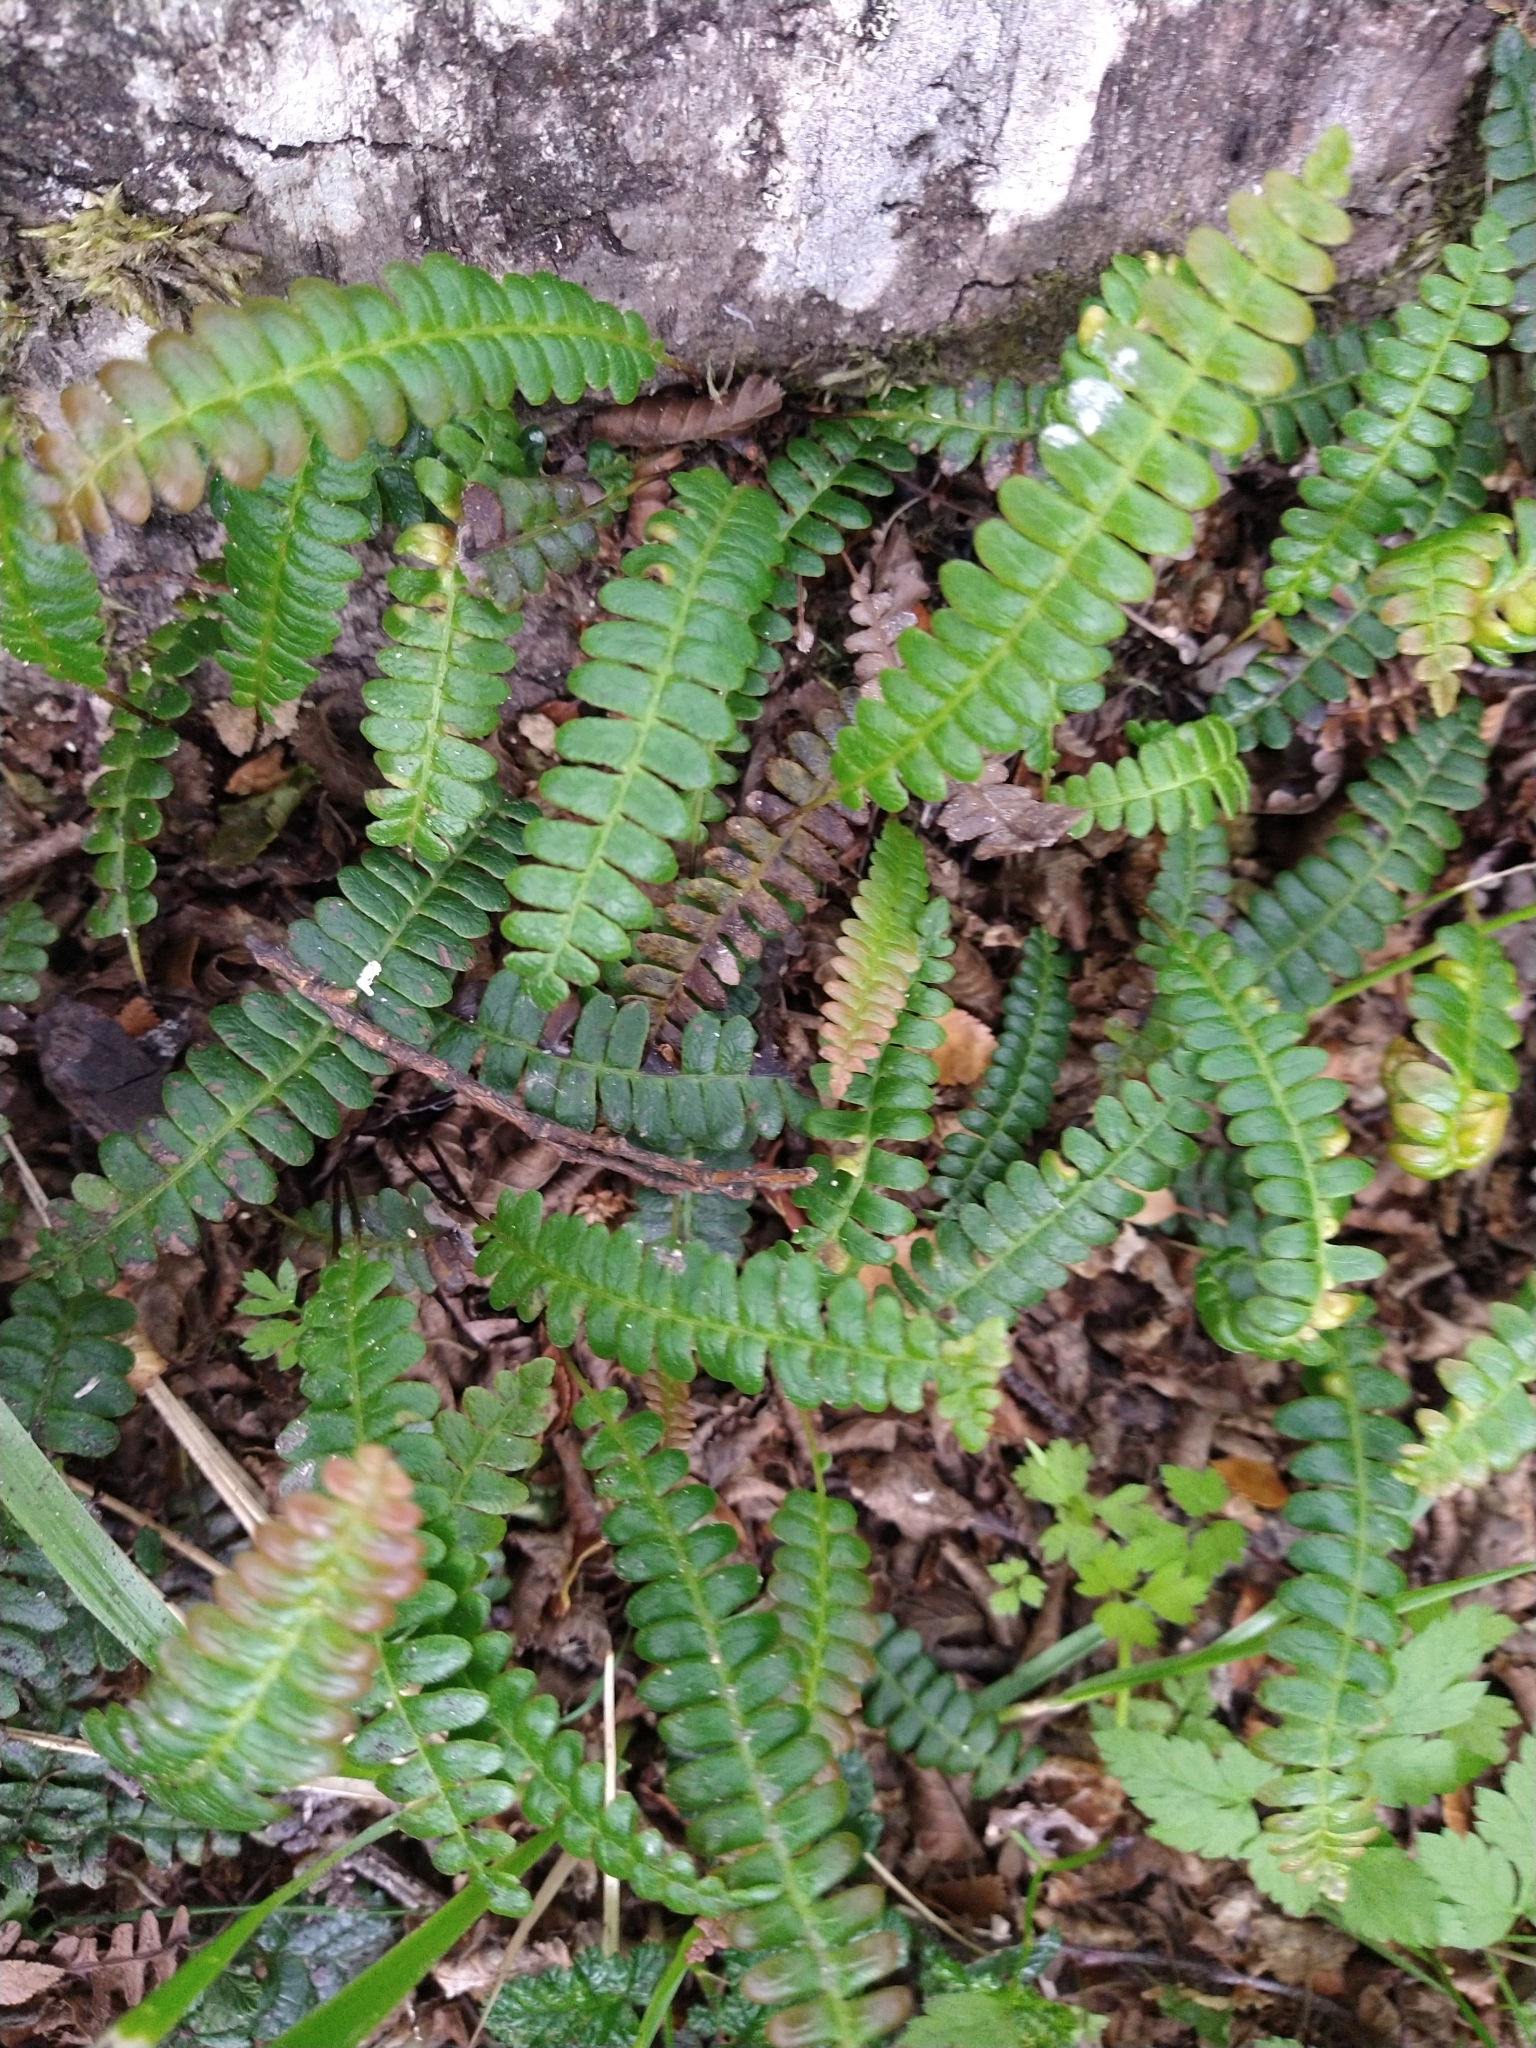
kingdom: Plantae
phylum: Tracheophyta
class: Polypodiopsida
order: Polypodiales
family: Blechnaceae
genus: Austroblechnum
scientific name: Austroblechnum penna-marina
